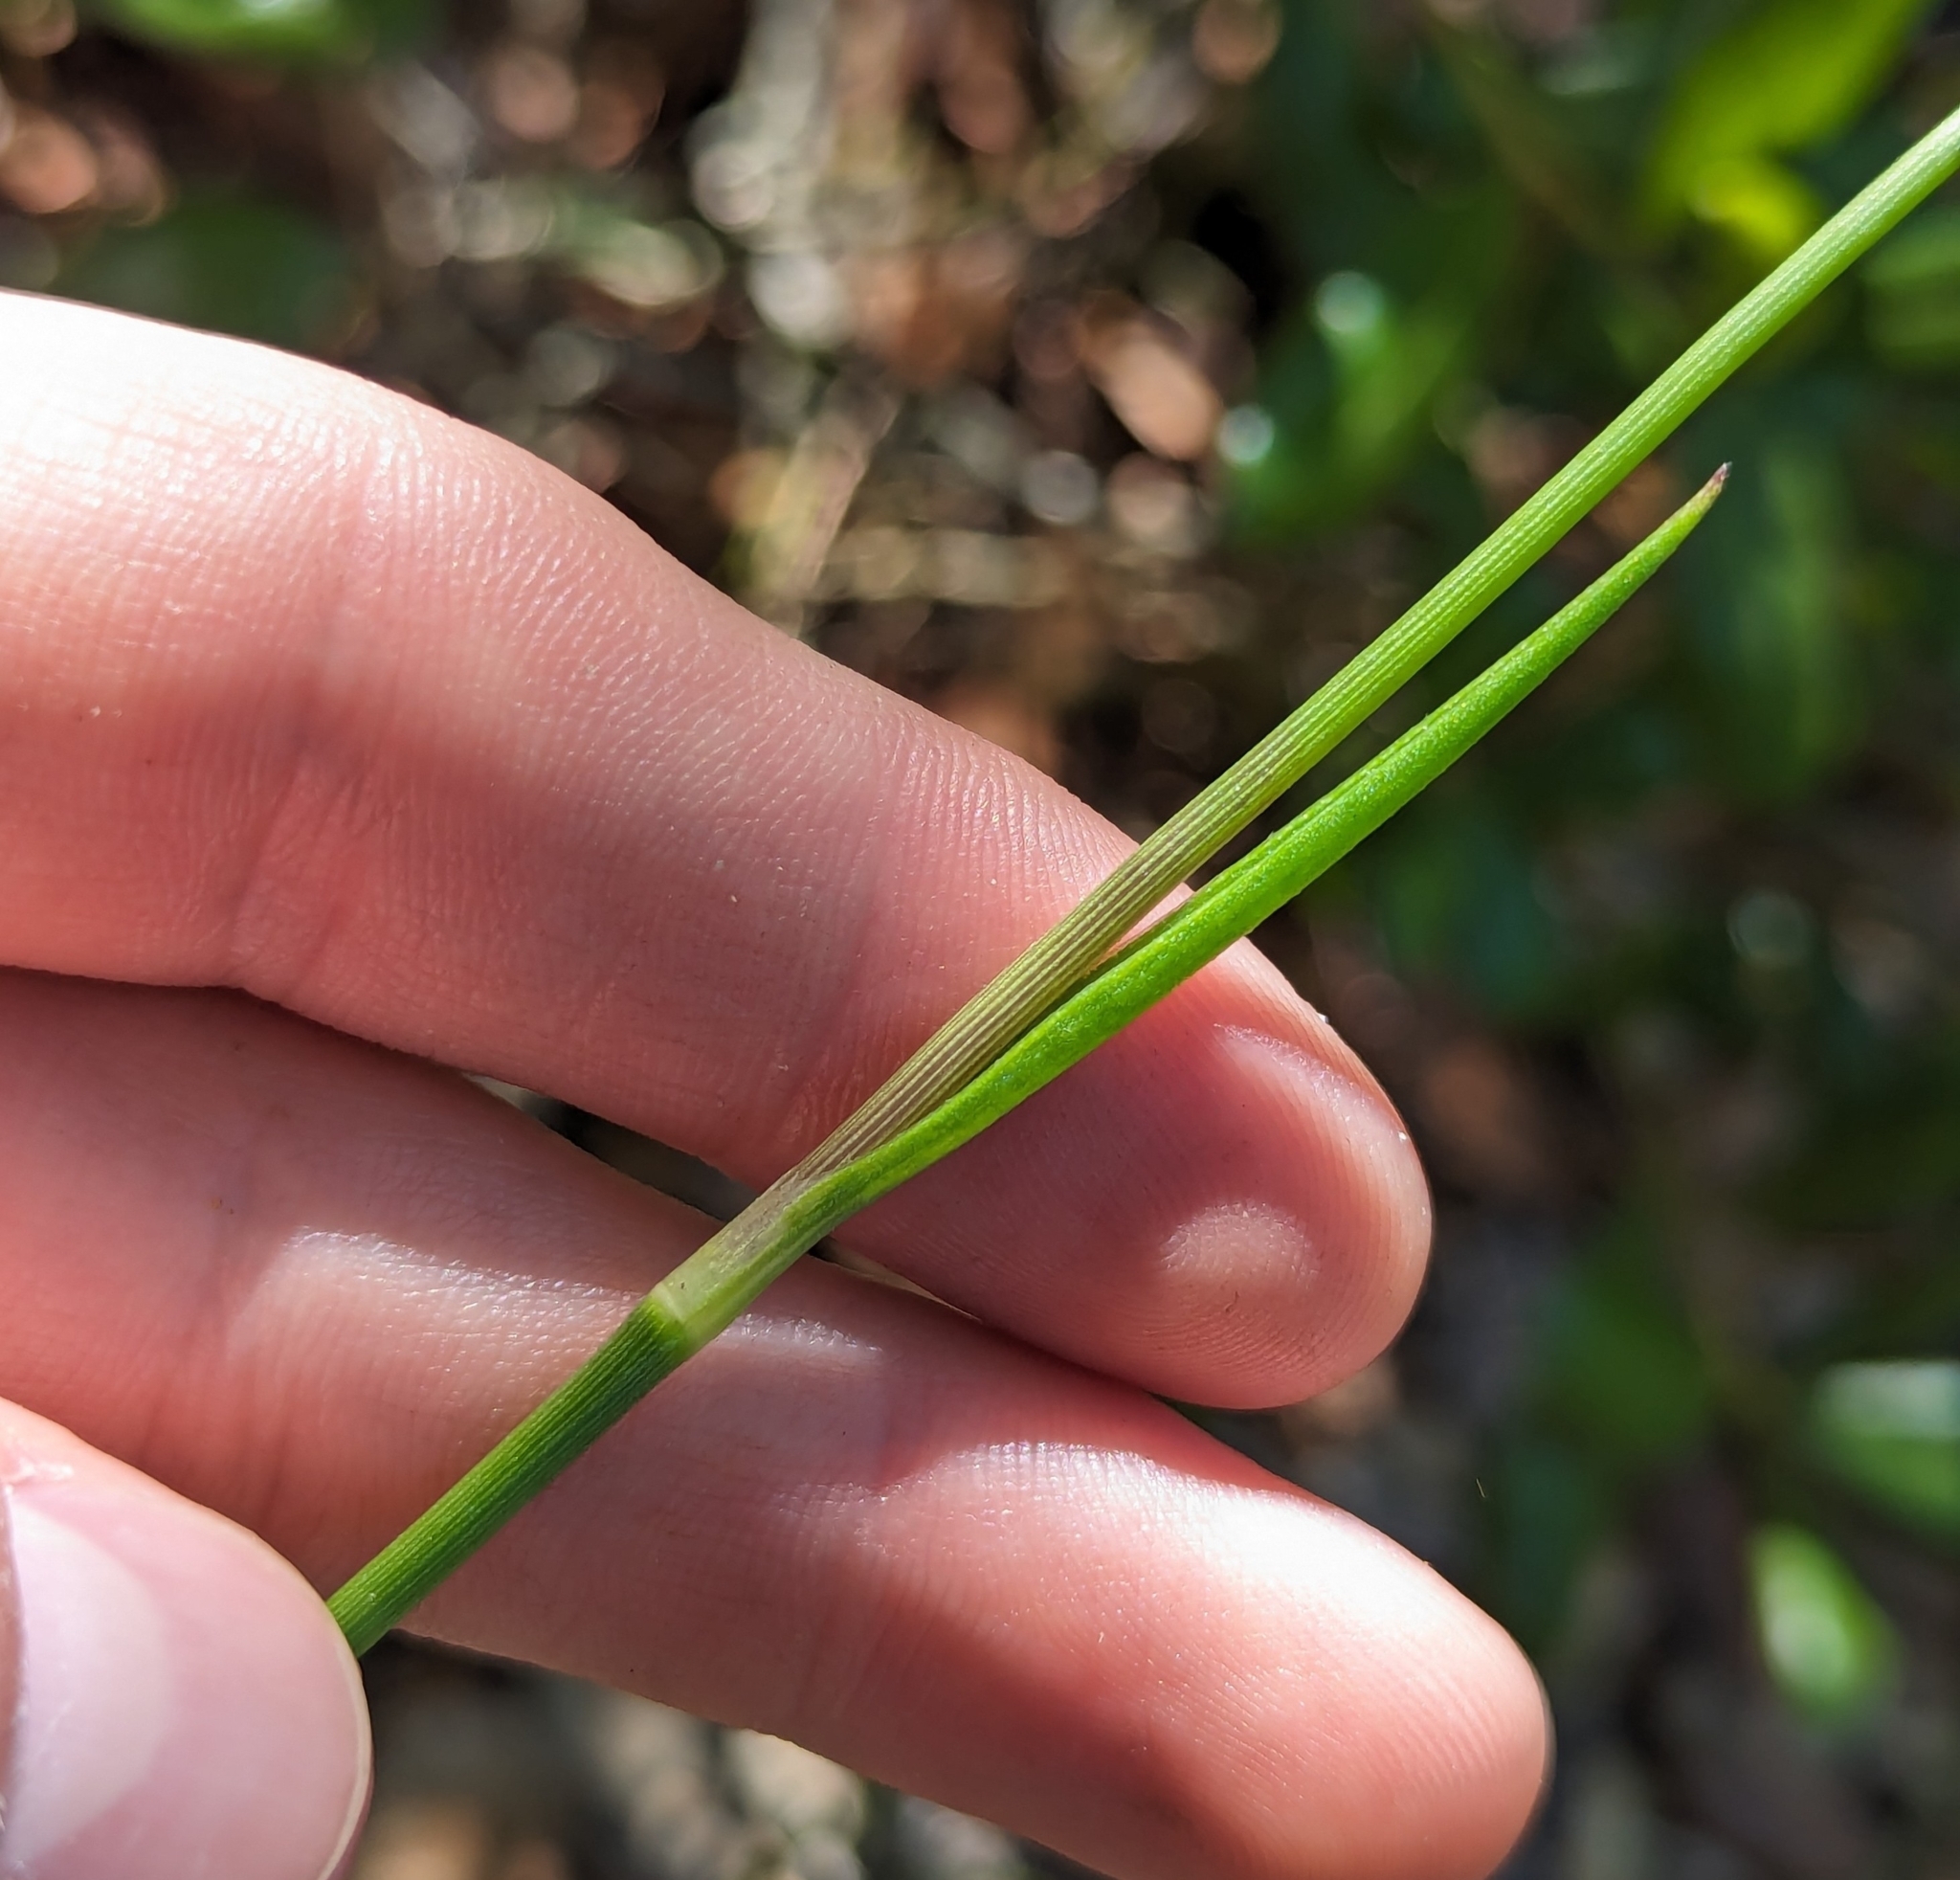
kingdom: Plantae
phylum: Tracheophyta
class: Liliopsida
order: Commelinales
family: Commelinaceae
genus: Callisia
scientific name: Callisia ornata
